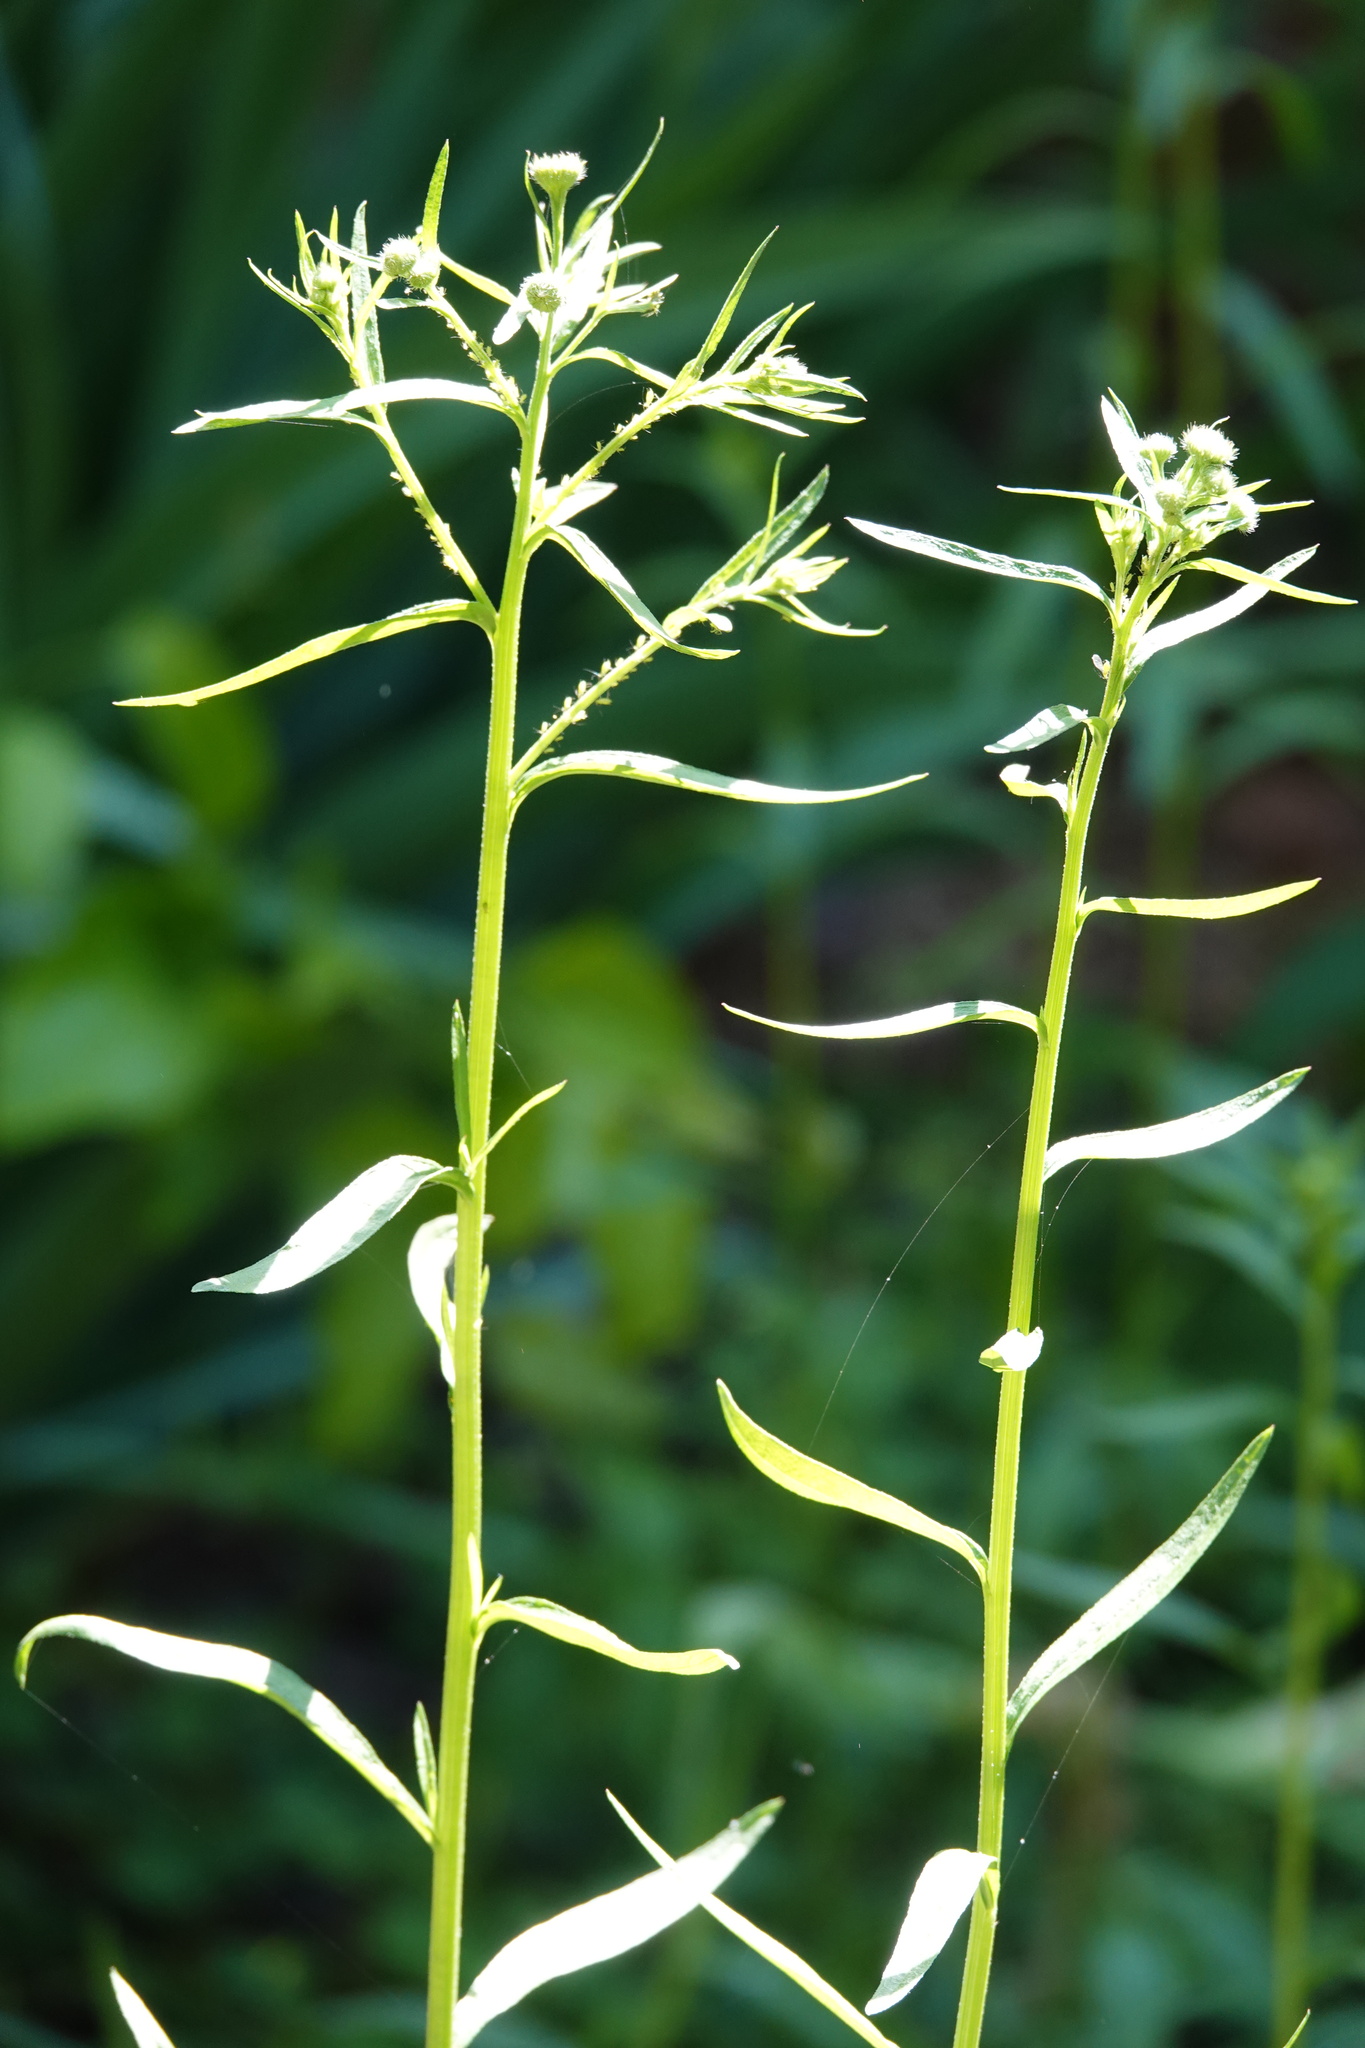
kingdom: Plantae
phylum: Tracheophyta
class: Magnoliopsida
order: Asterales
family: Asteraceae
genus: Erigeron
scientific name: Erigeron strigosus
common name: Common eastern fleabane
